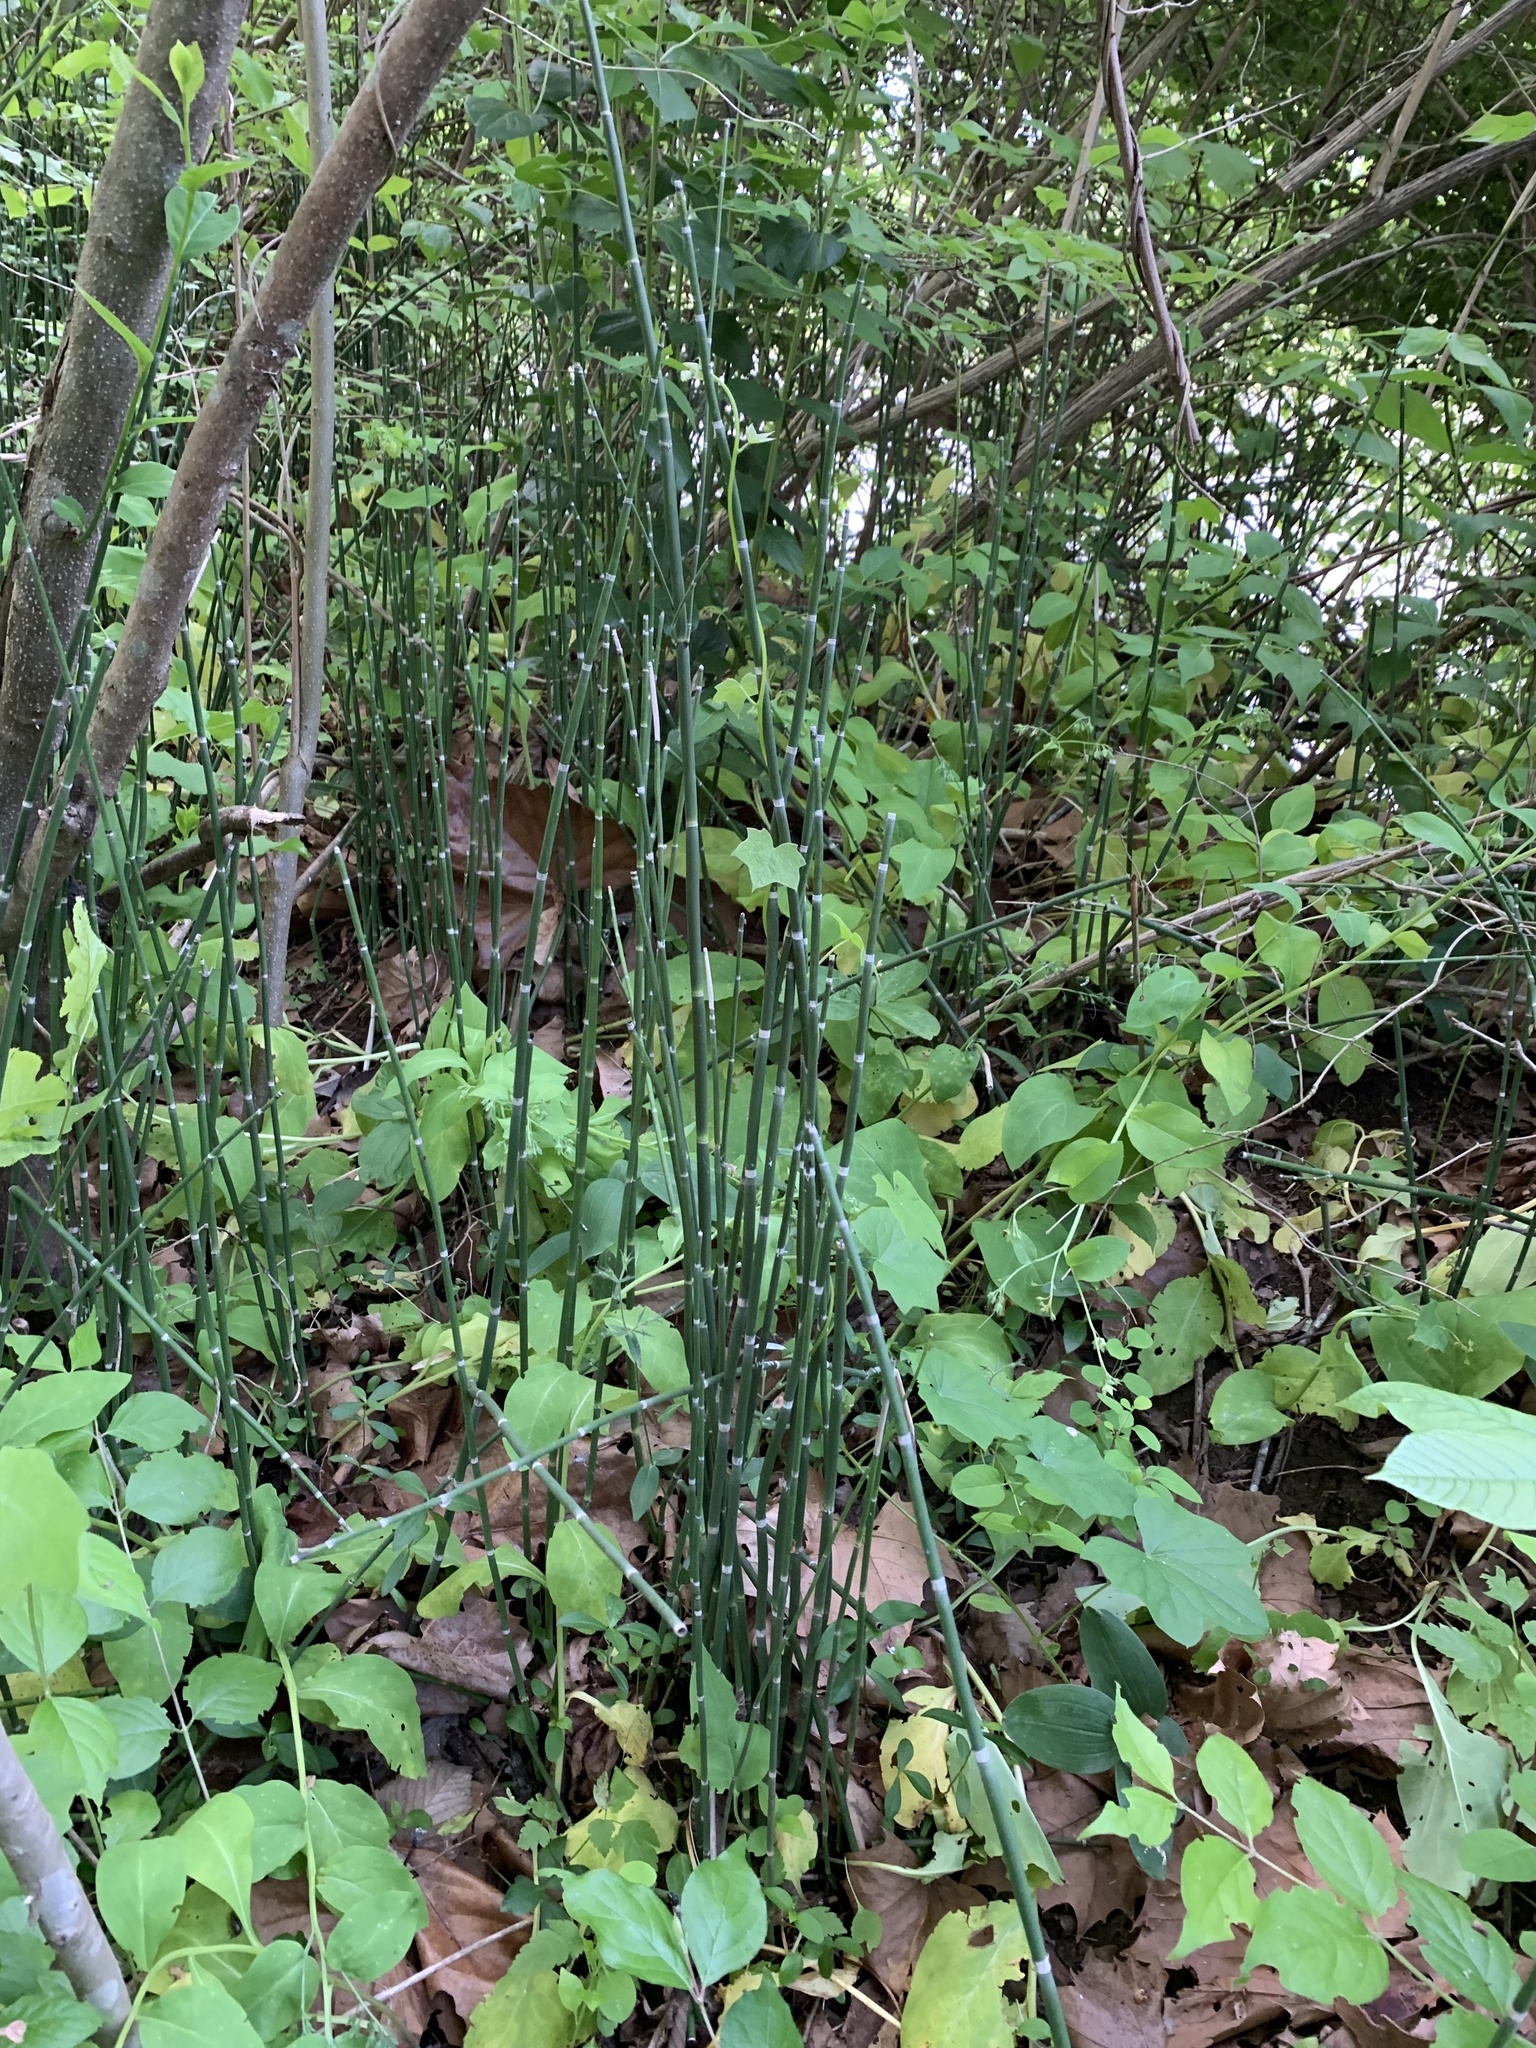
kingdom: Plantae
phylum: Tracheophyta
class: Polypodiopsida
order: Equisetales
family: Equisetaceae
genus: Equisetum
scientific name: Equisetum praealtum
